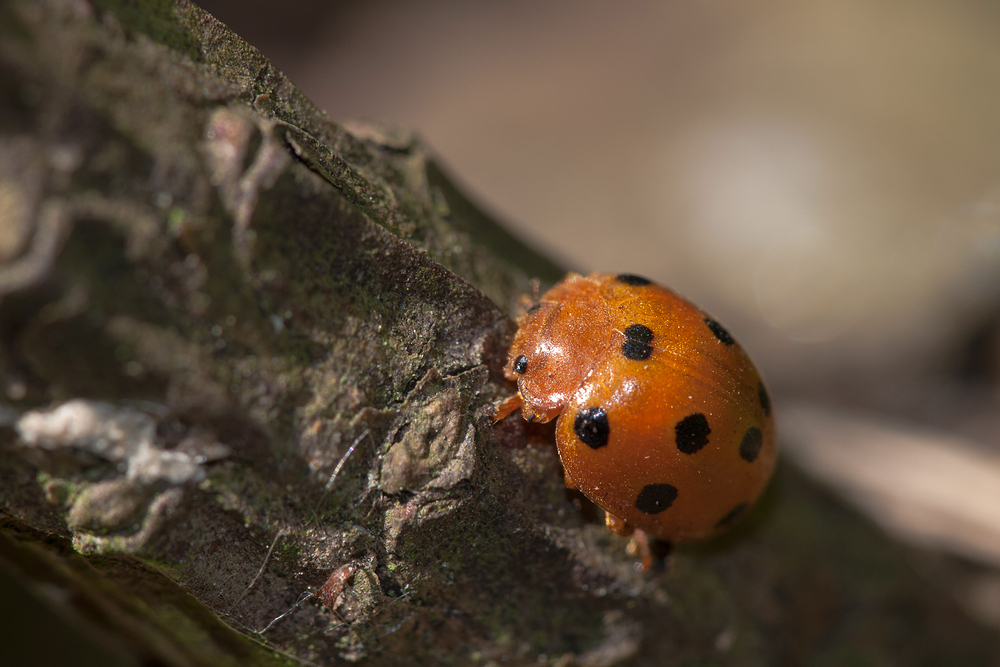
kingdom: Animalia
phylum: Arthropoda
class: Insecta
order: Coleoptera
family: Coccinellidae
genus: Henosepilachna
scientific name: Henosepilachna argus
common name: Bryony ladybird
